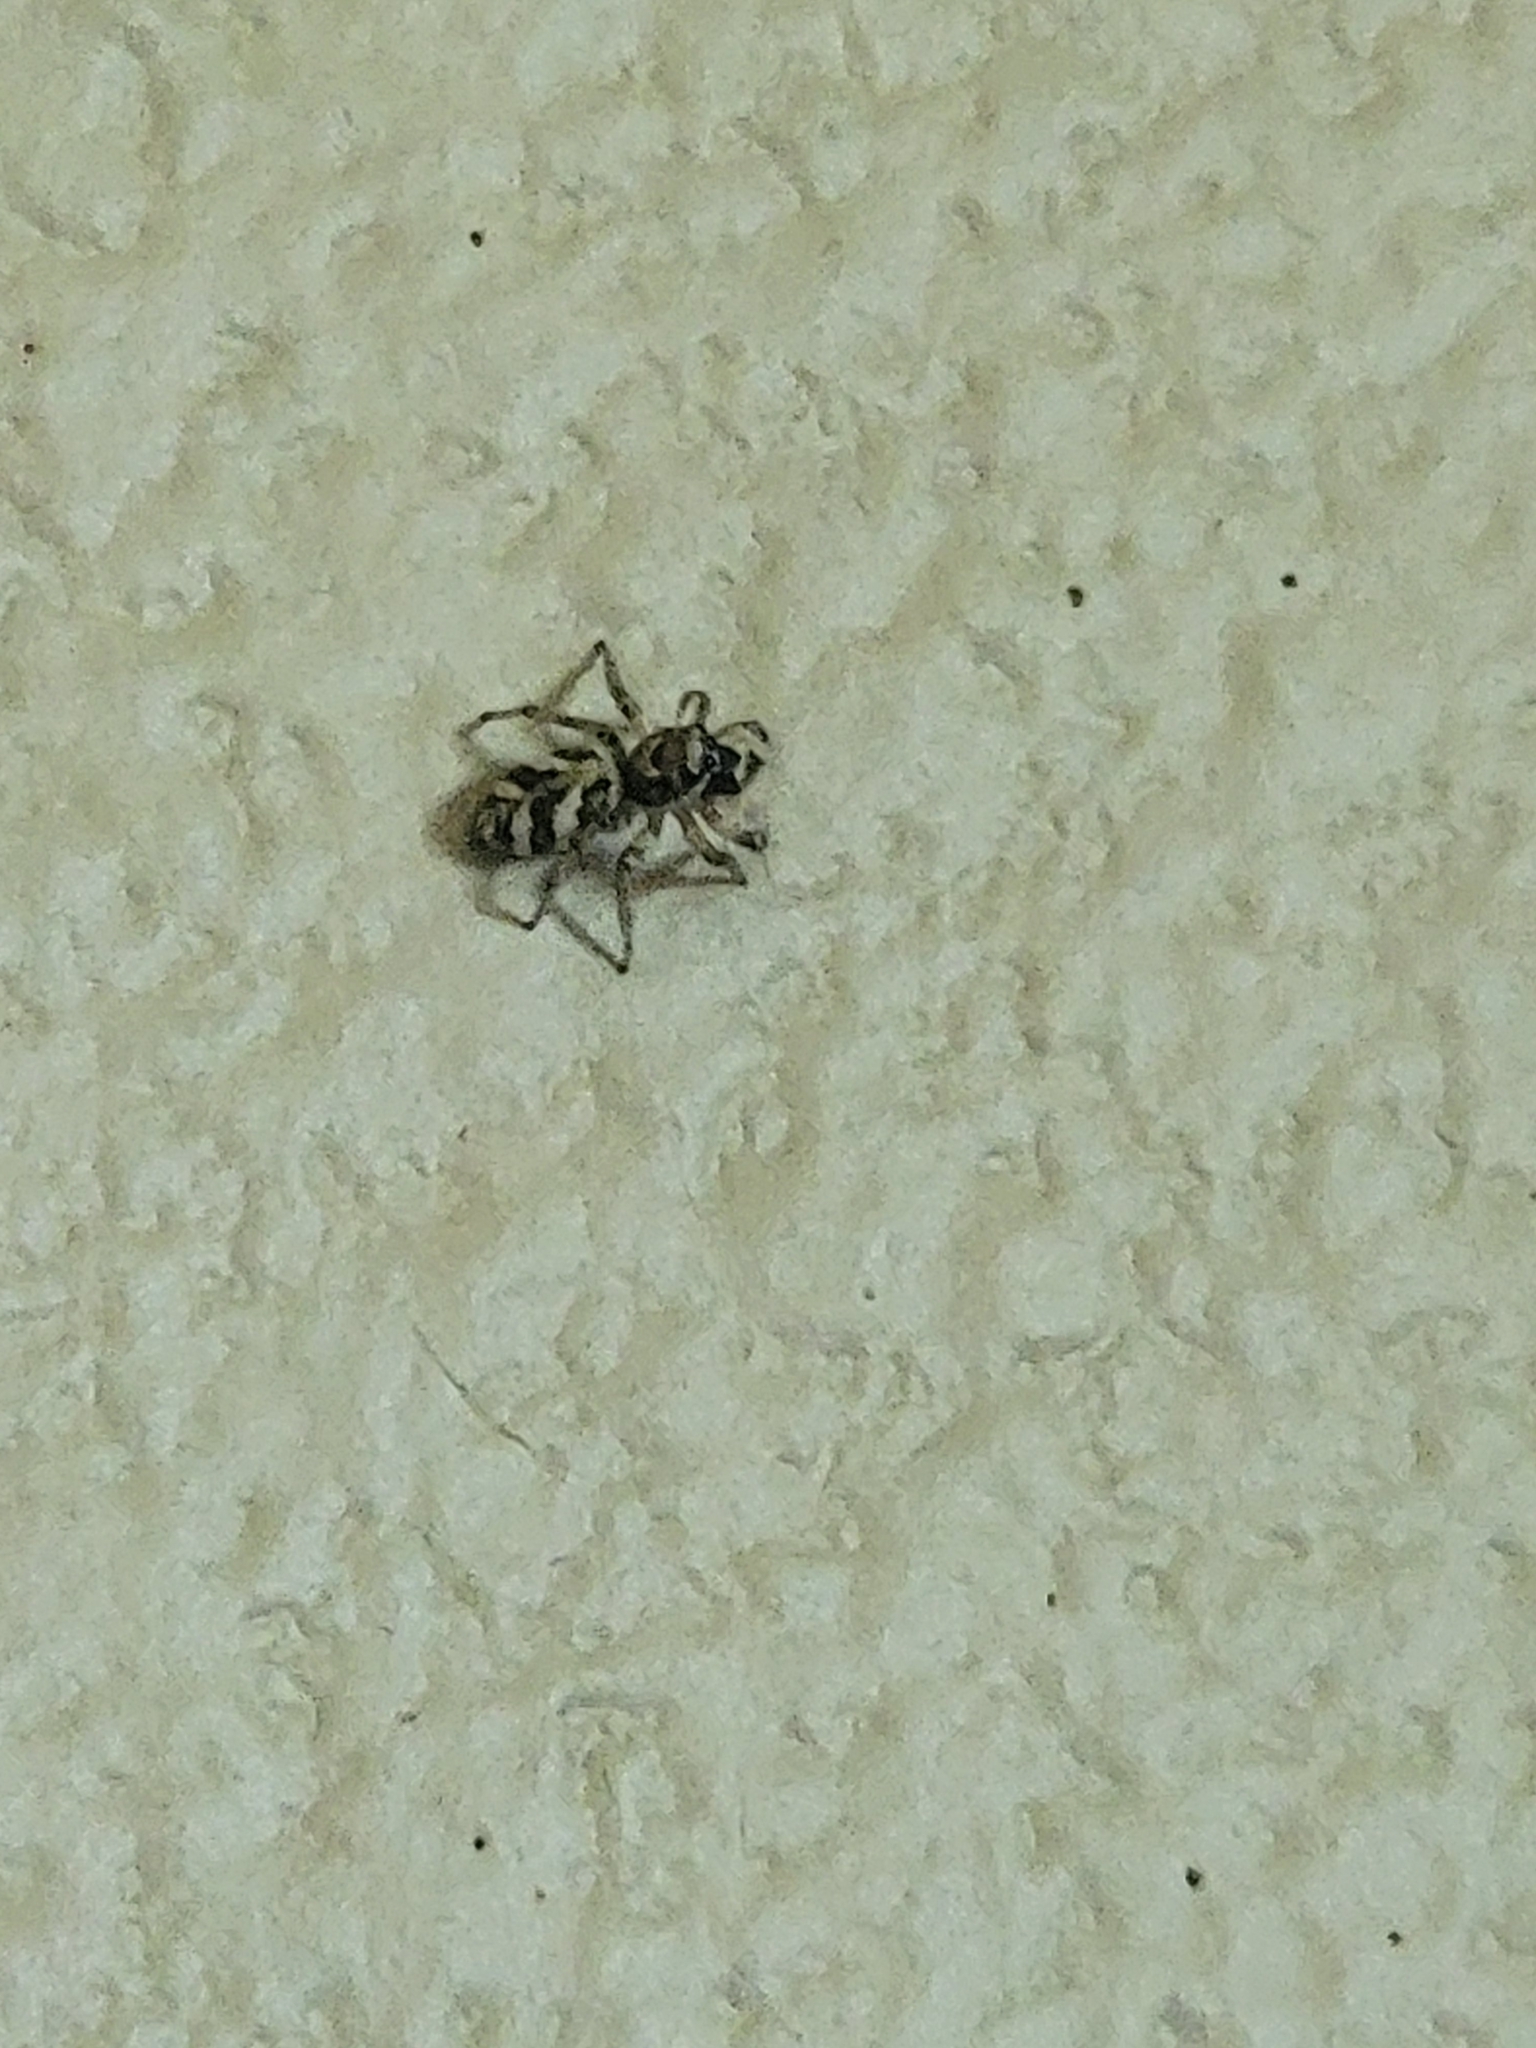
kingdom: Animalia
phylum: Arthropoda
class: Arachnida
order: Araneae
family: Salticidae
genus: Salticus
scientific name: Salticus scenicus
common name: Zebra jumper
